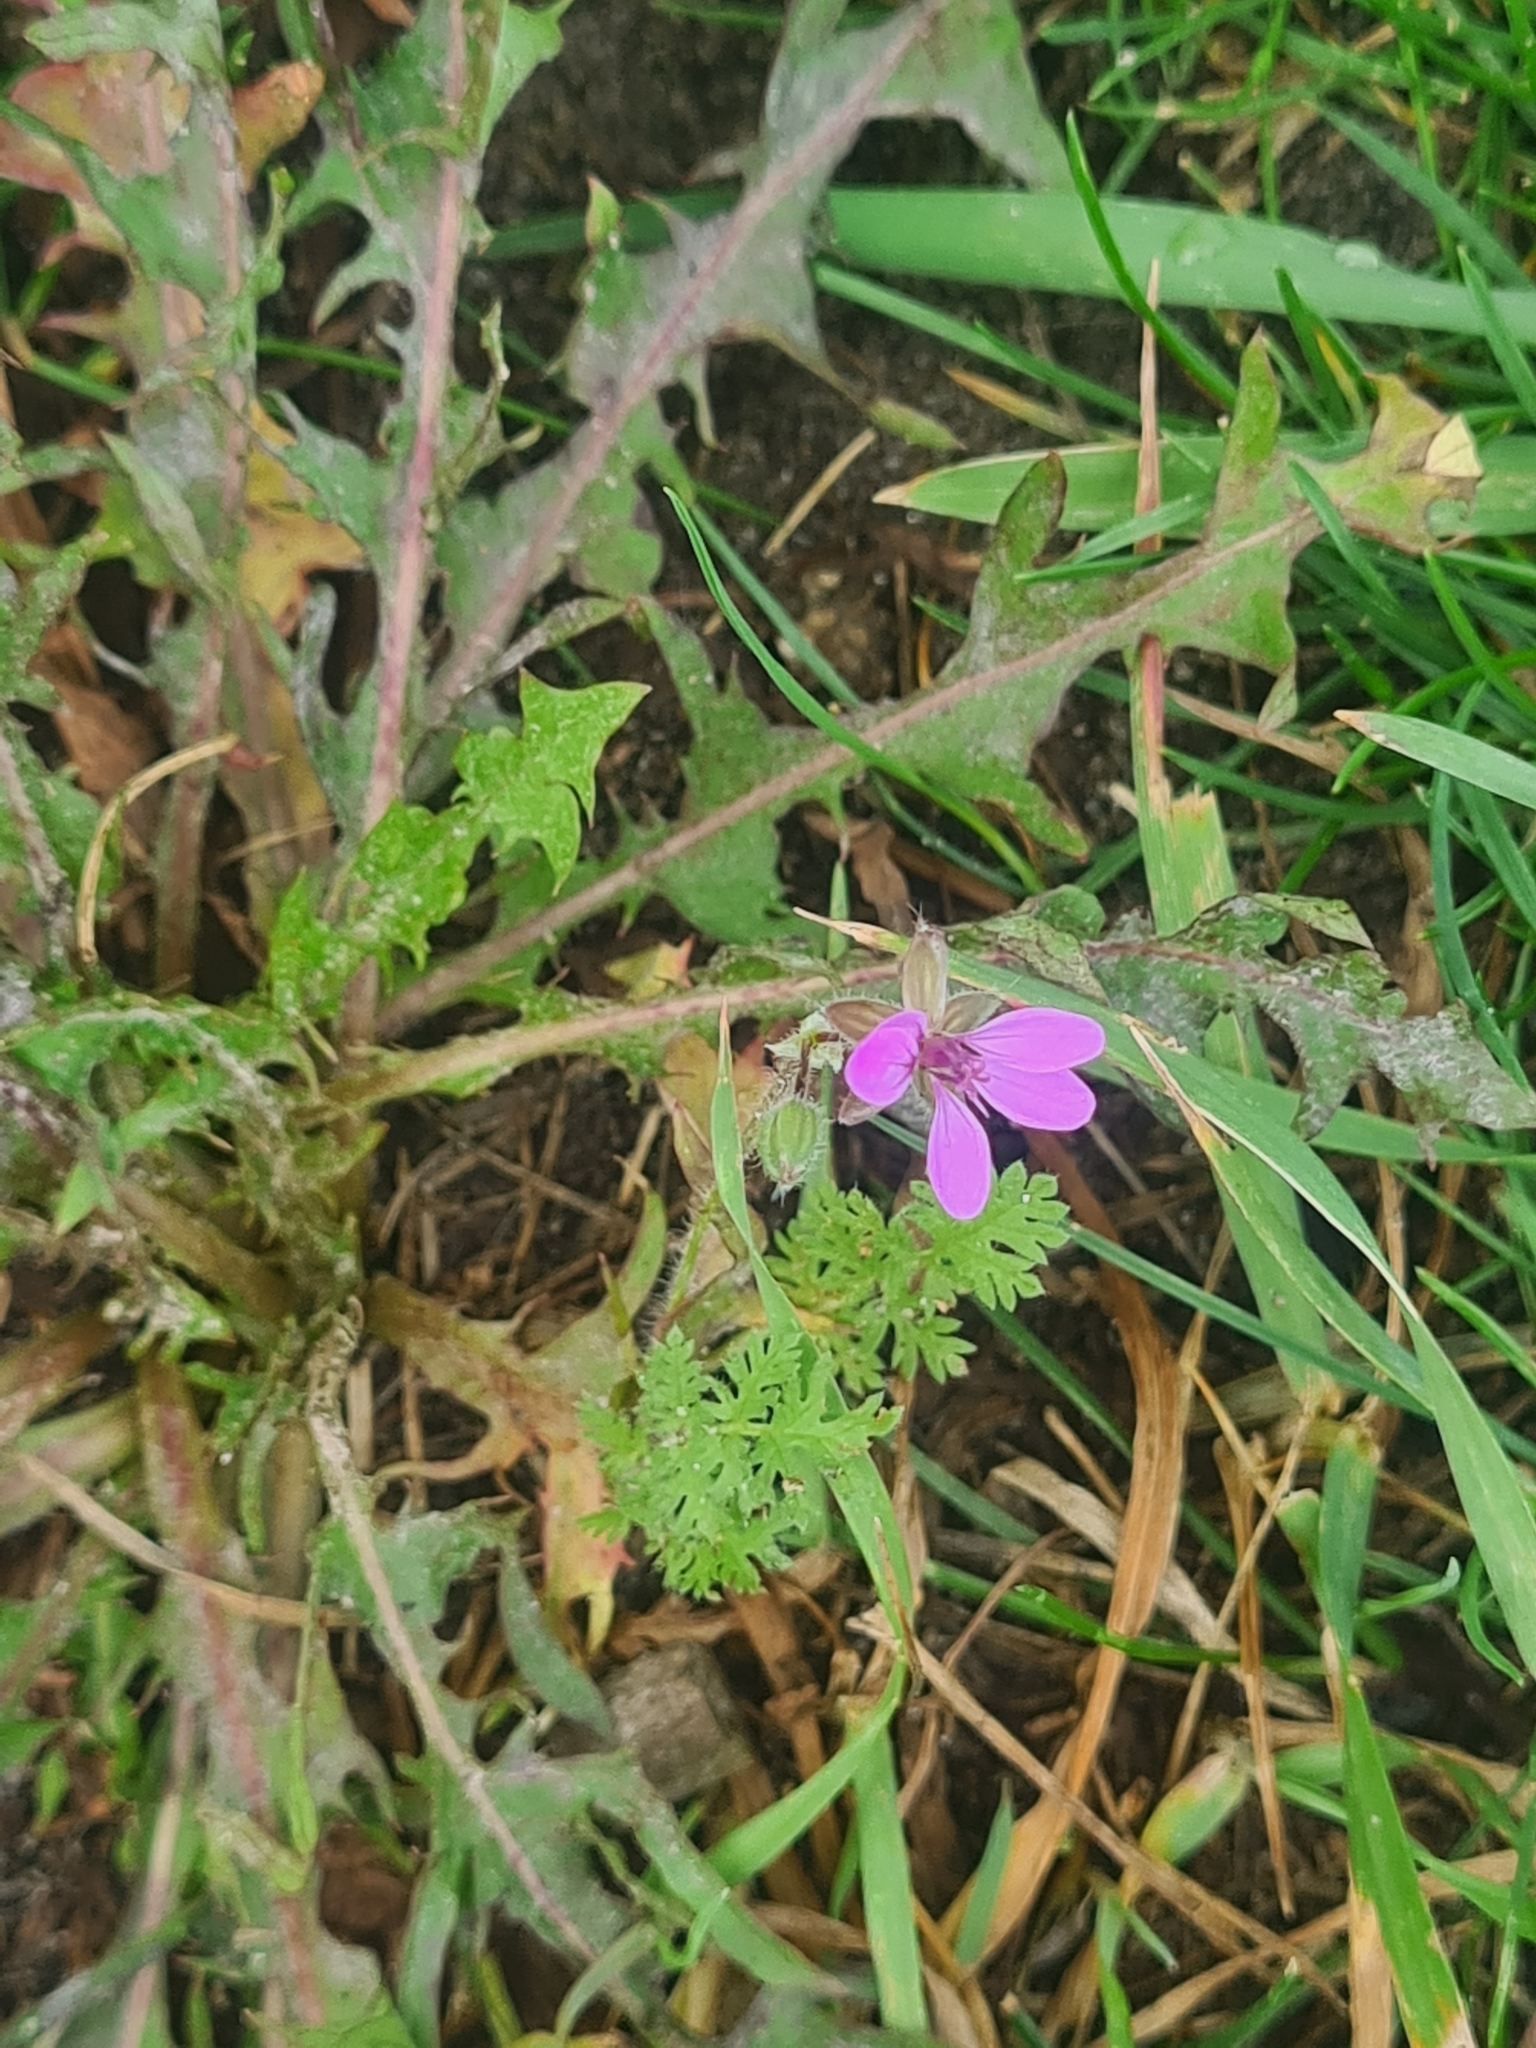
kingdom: Plantae
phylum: Tracheophyta
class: Magnoliopsida
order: Geraniales
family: Geraniaceae
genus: Erodium
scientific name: Erodium cicutarium
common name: Common stork's-bill
